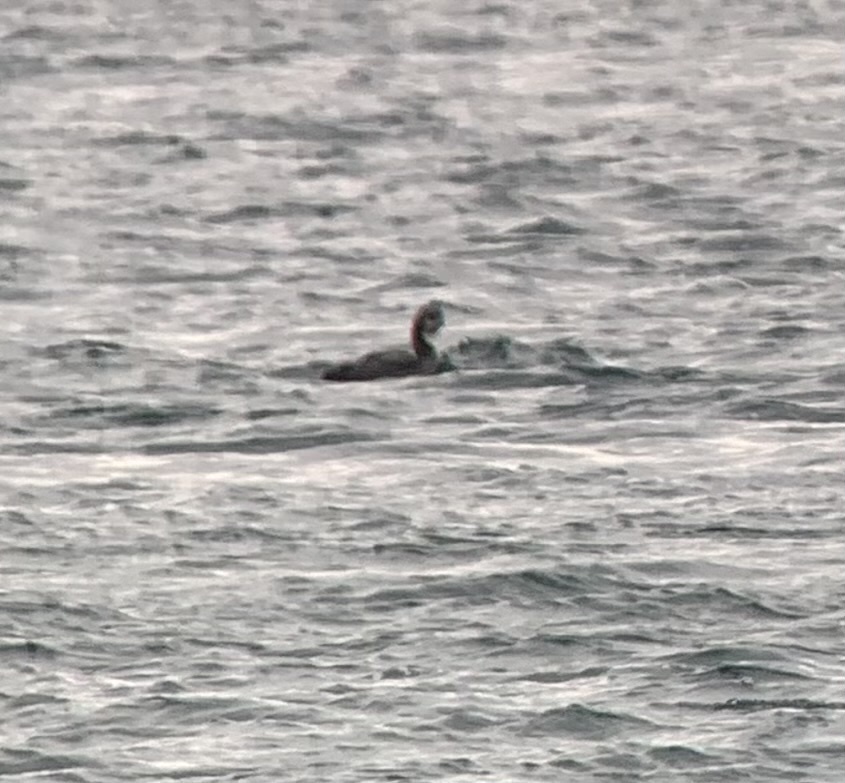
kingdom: Animalia
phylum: Chordata
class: Aves
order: Gaviiformes
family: Gaviidae
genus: Gavia
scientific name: Gavia pacifica
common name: Pacific loon
